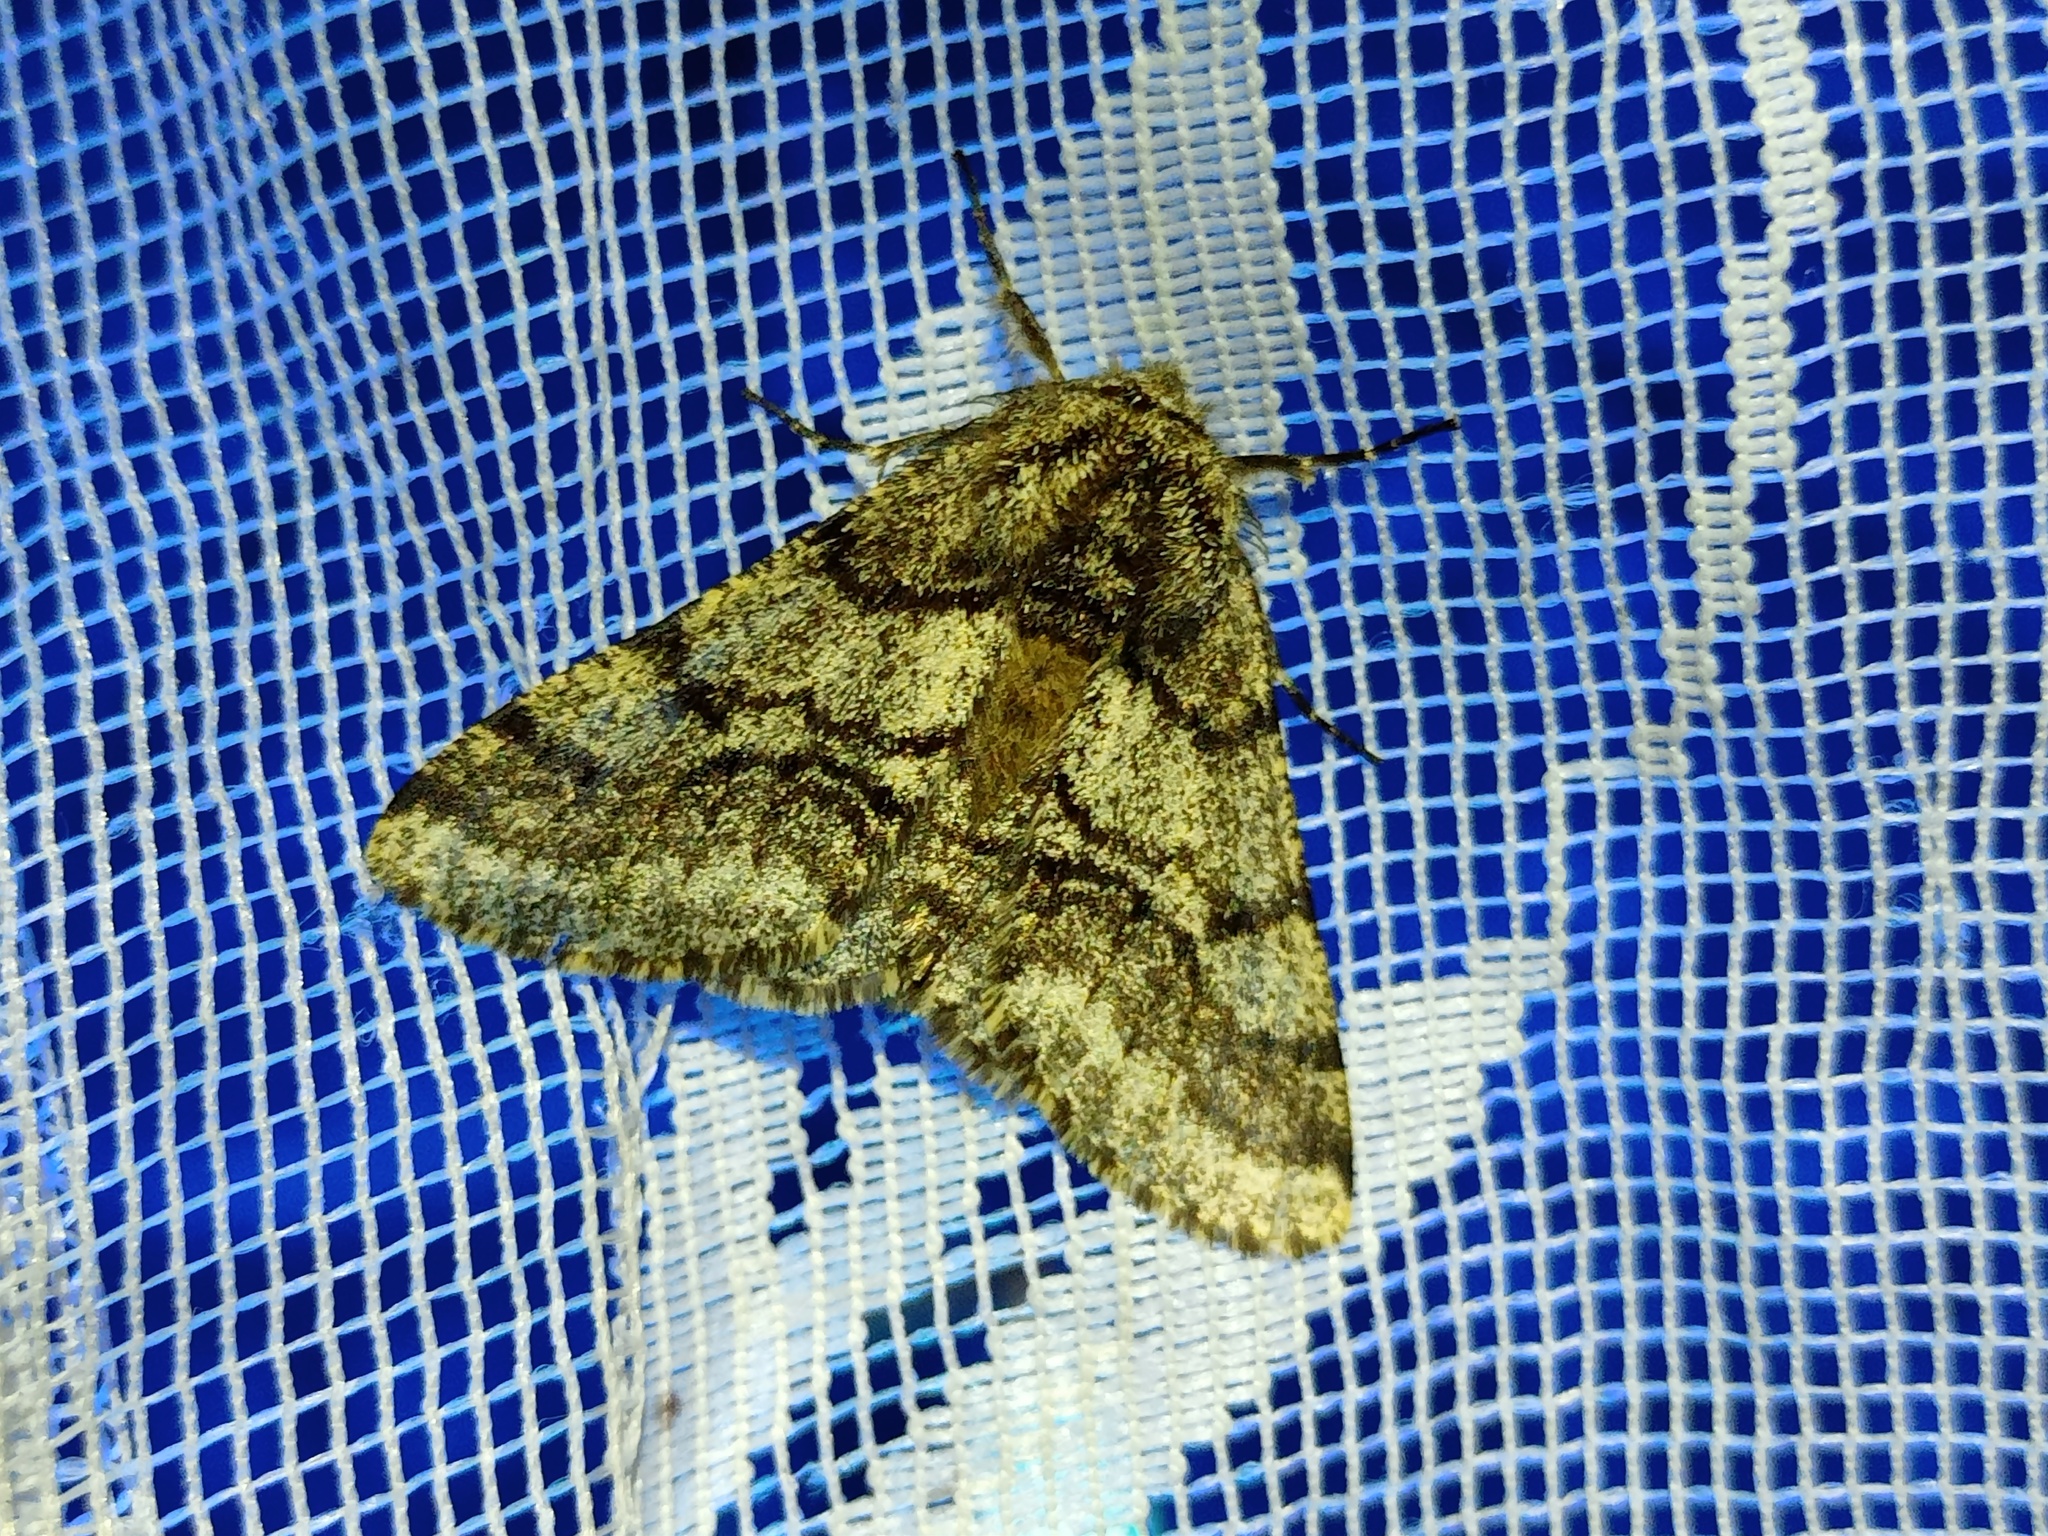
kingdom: Animalia
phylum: Arthropoda
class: Insecta
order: Lepidoptera
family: Geometridae
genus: Lycia
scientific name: Lycia hirtaria
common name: Brindled beauty
